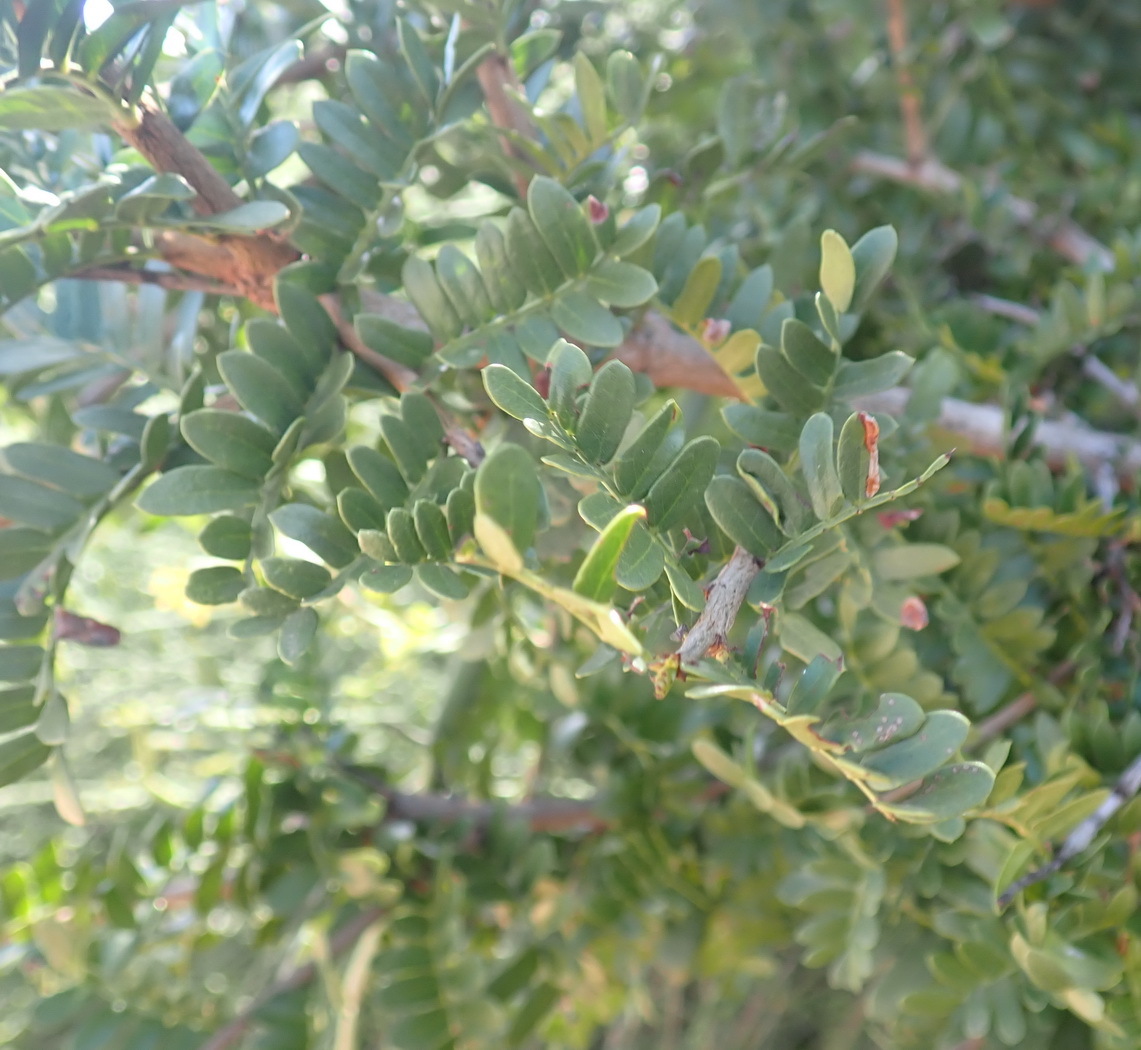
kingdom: Plantae
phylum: Tracheophyta
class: Magnoliopsida
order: Fabales
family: Fabaceae
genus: Schotia
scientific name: Schotia afra
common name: Hottentot's bean
